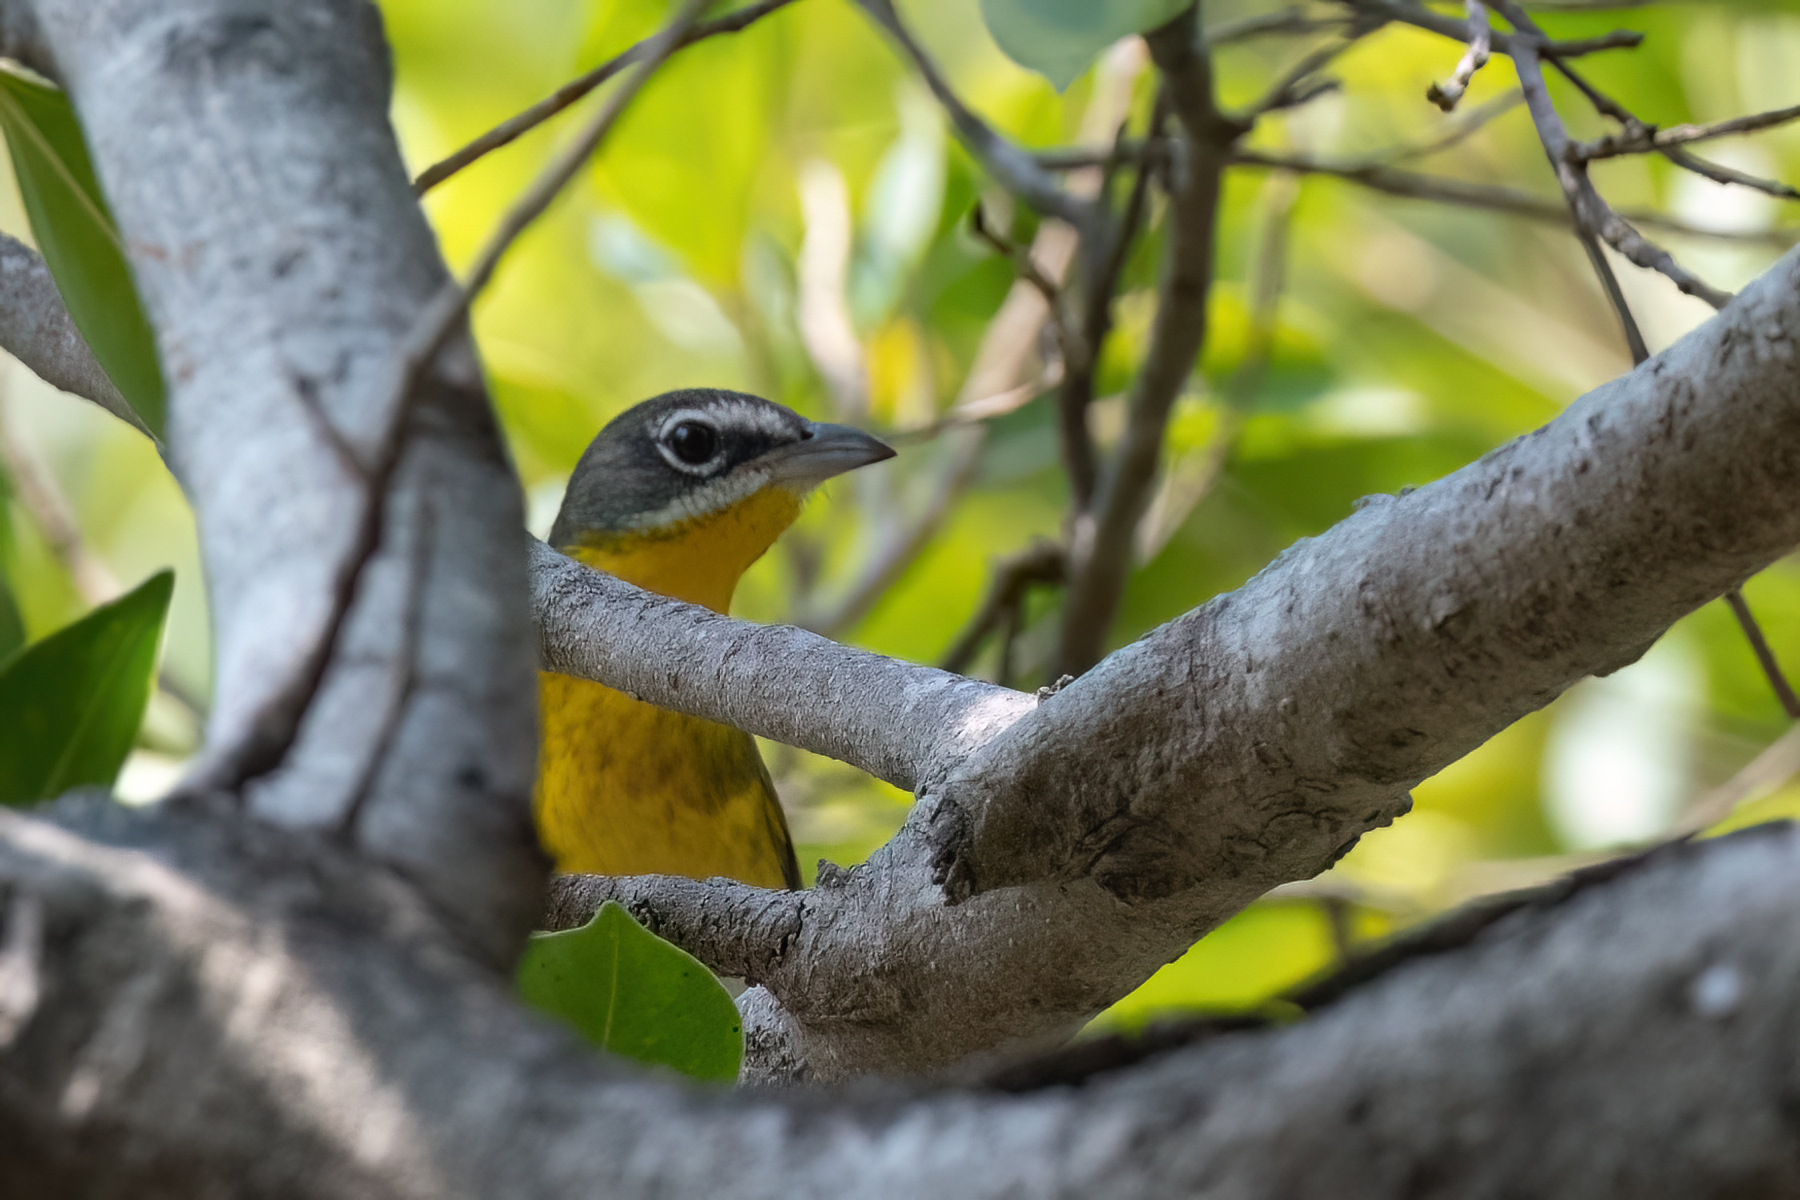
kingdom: Animalia
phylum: Chordata
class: Aves
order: Passeriformes
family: Parulidae
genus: Icteria
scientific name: Icteria virens
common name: Yellow-breasted chat
